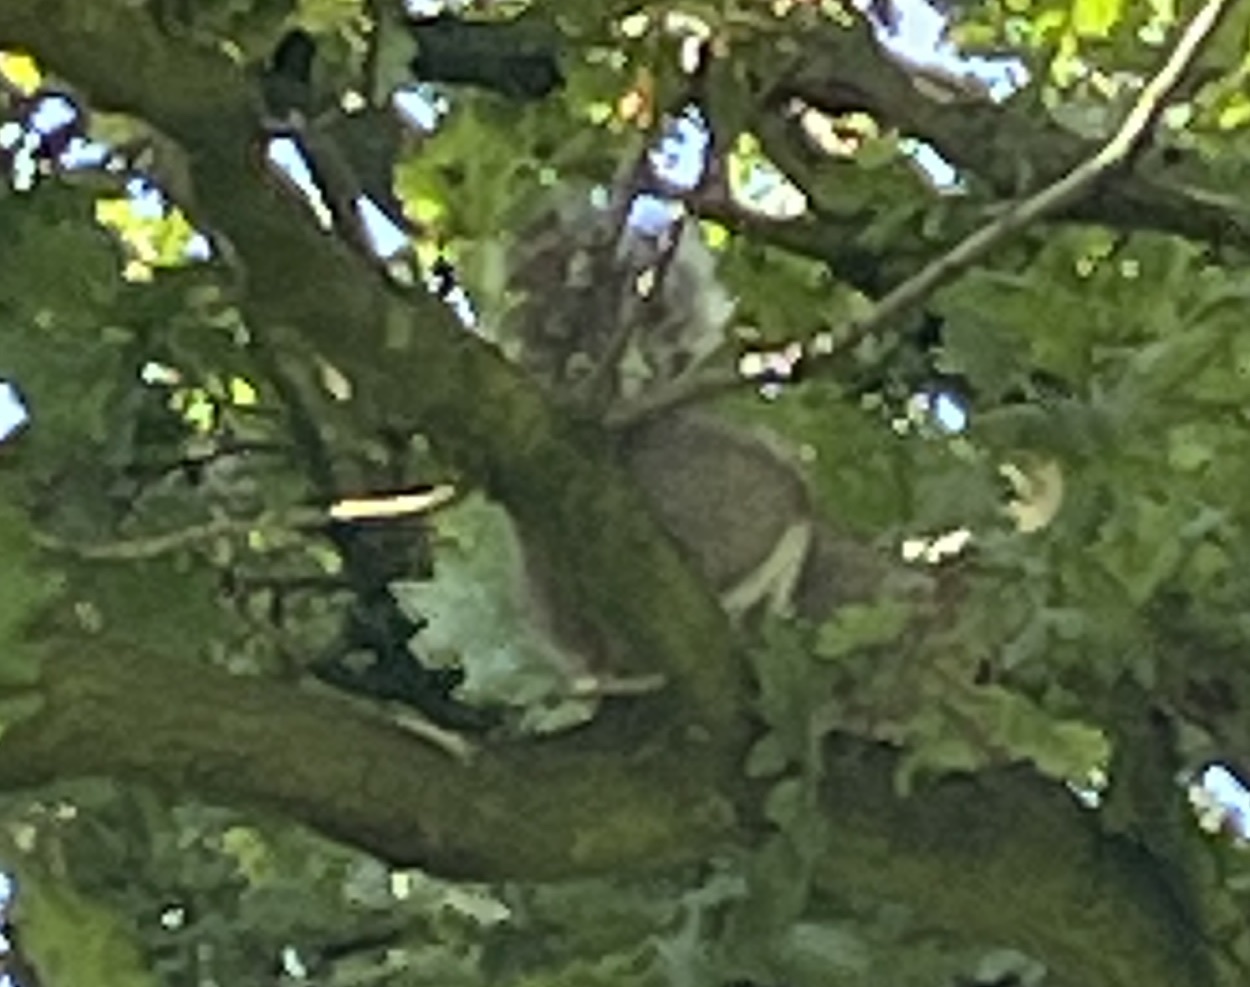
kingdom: Animalia
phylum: Chordata
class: Mammalia
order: Rodentia
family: Sciuridae
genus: Sciurus
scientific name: Sciurus carolinensis
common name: Eastern gray squirrel
